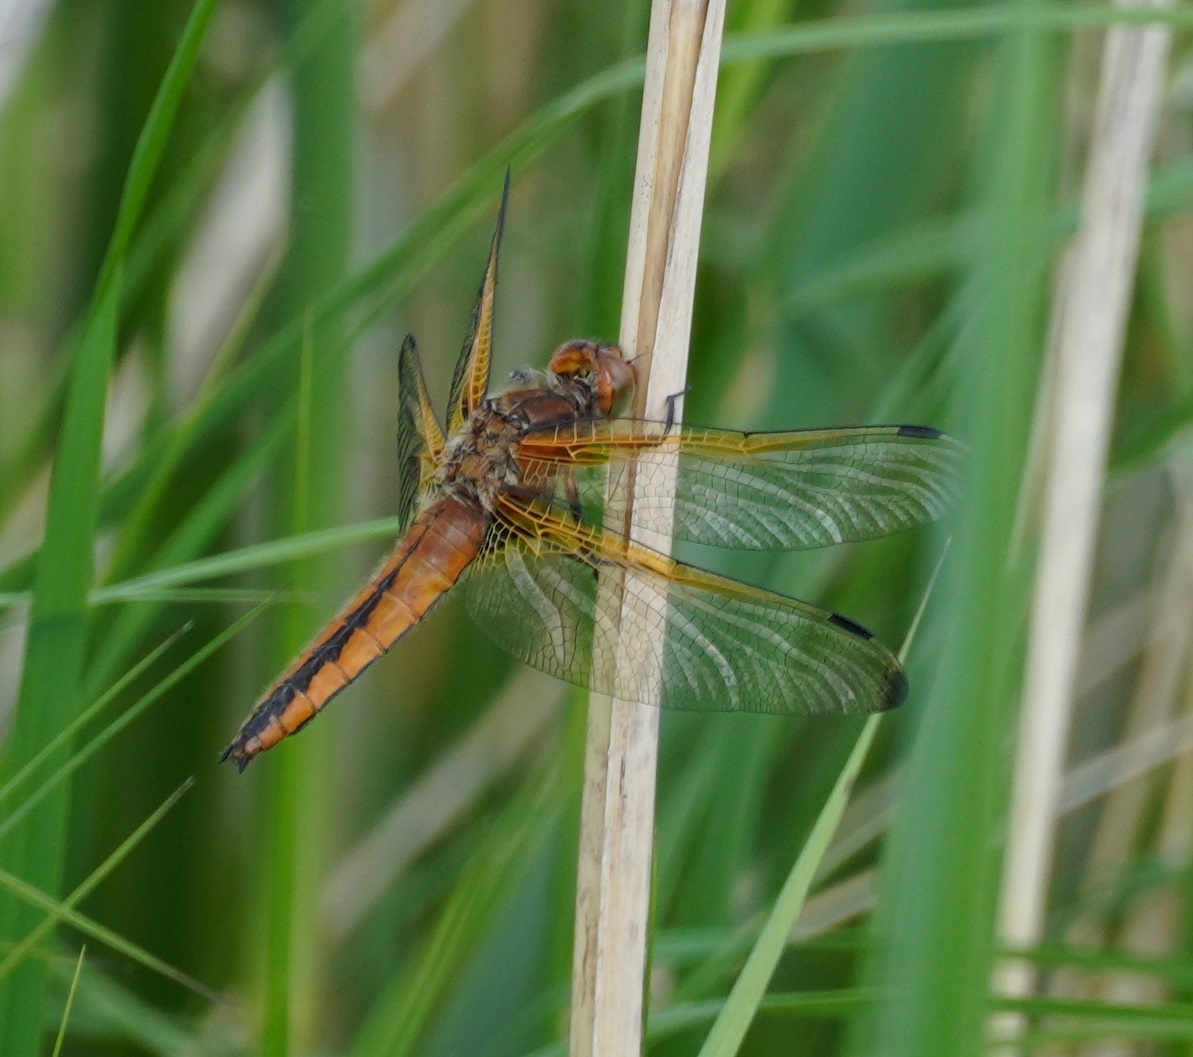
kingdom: Animalia
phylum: Arthropoda
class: Insecta
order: Odonata
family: Libellulidae
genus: Libellula
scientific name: Libellula fulva
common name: Blue chaser
